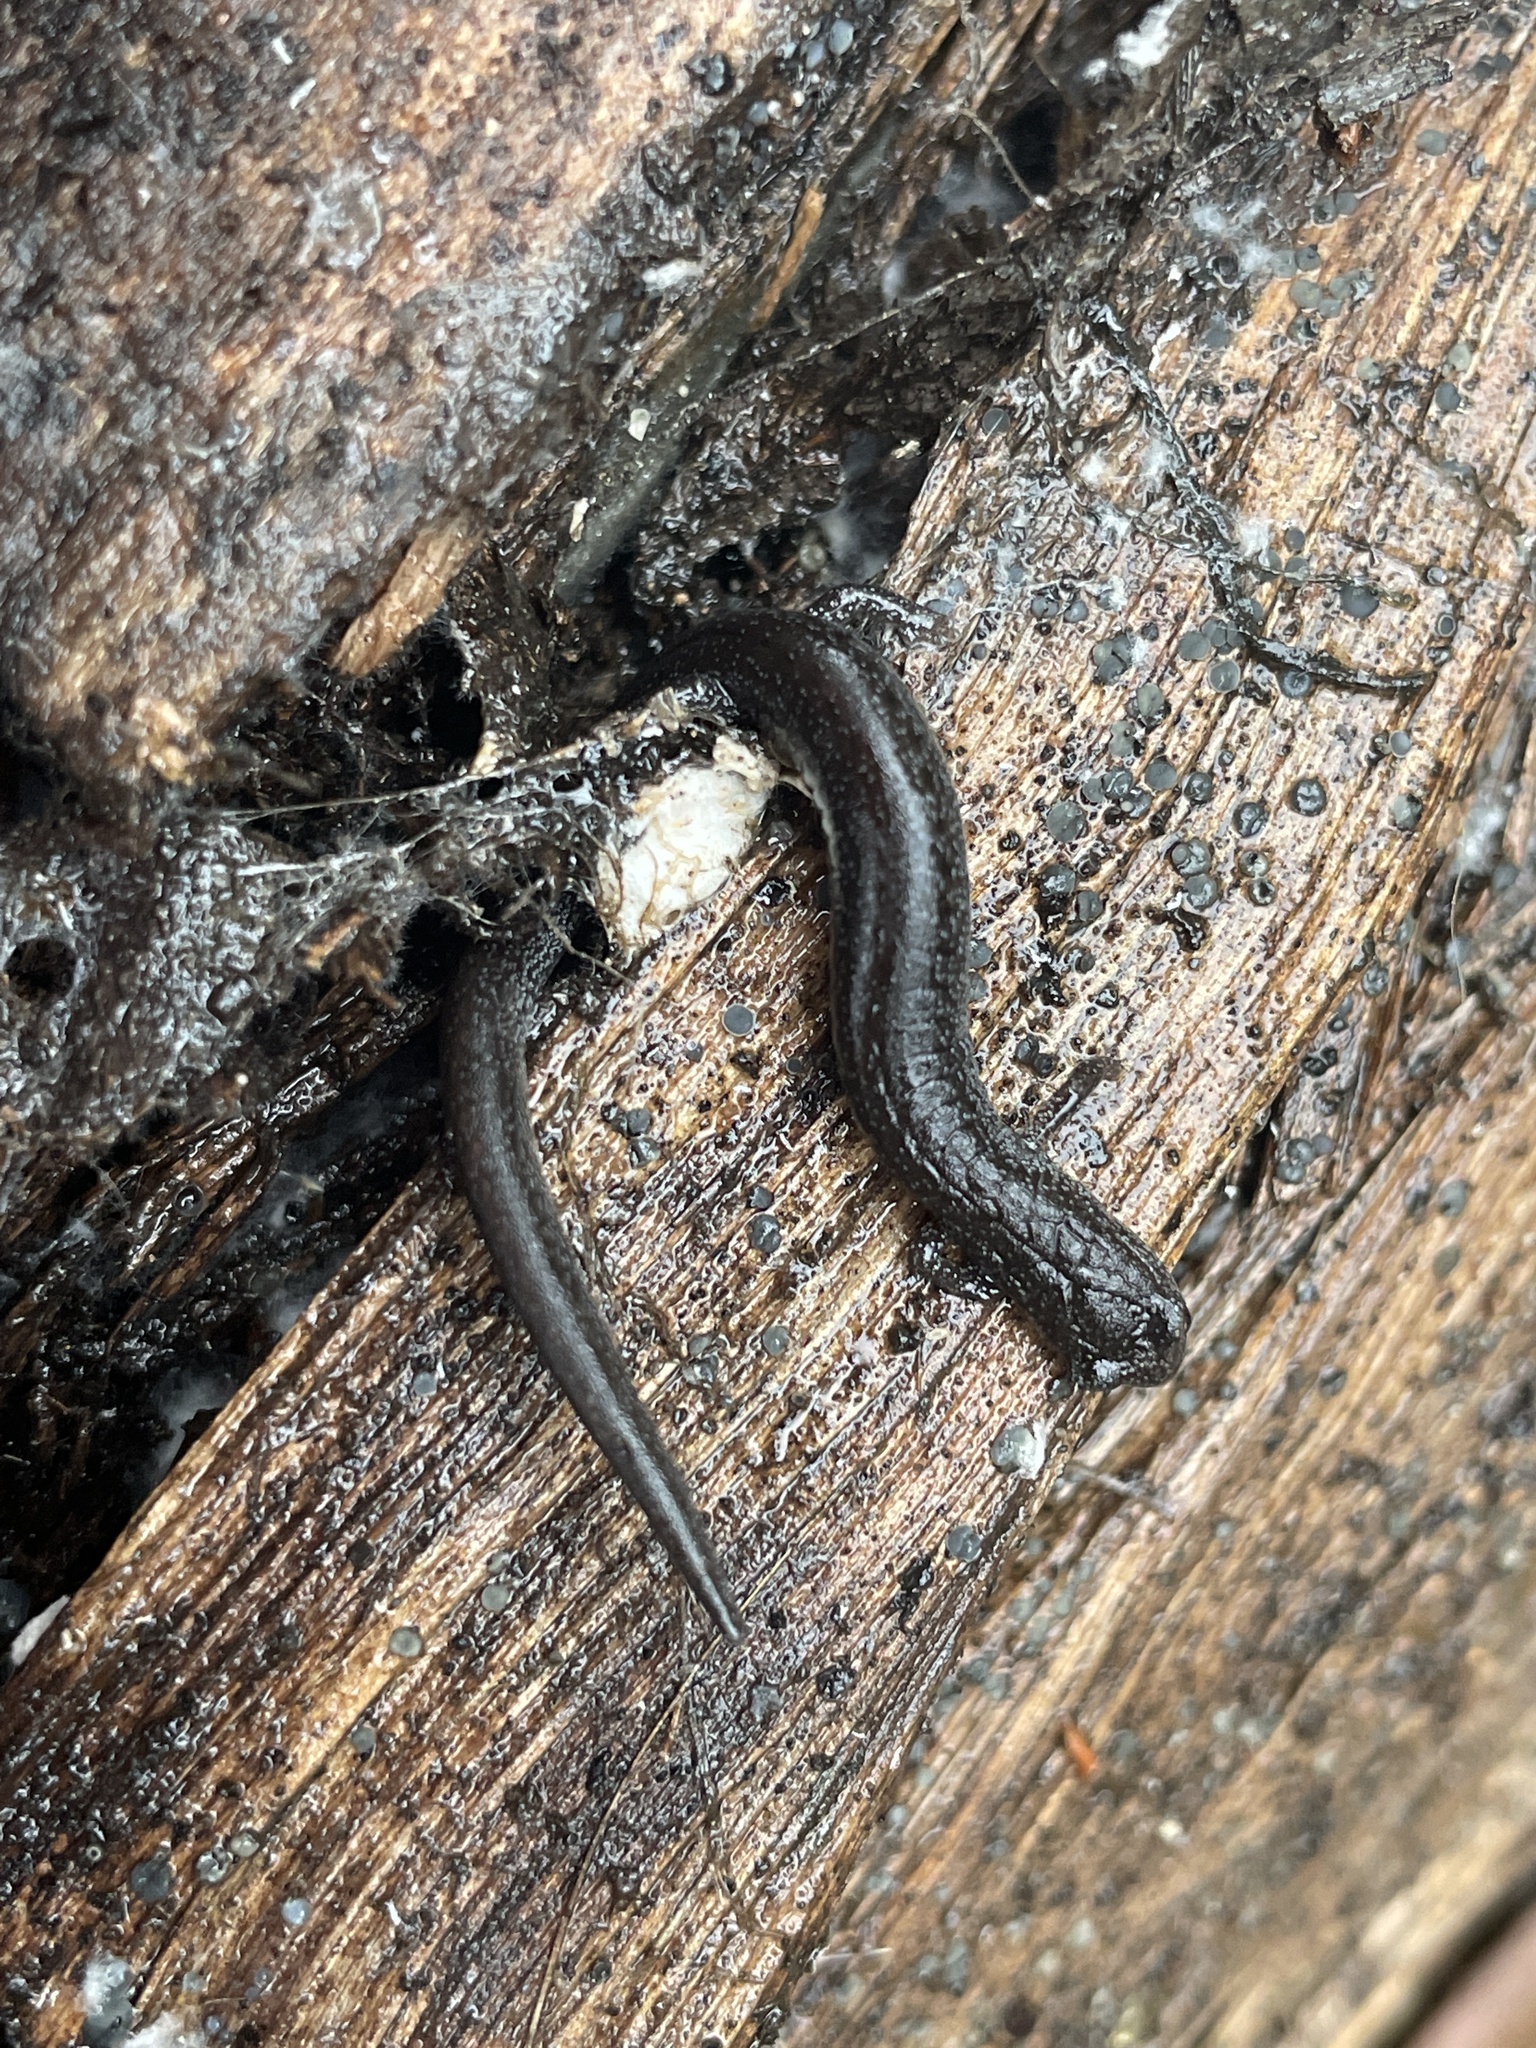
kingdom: Animalia
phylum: Chordata
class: Amphibia
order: Caudata
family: Plethodontidae
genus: Batrachoseps
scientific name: Batrachoseps attenuatus
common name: California slender salamander
